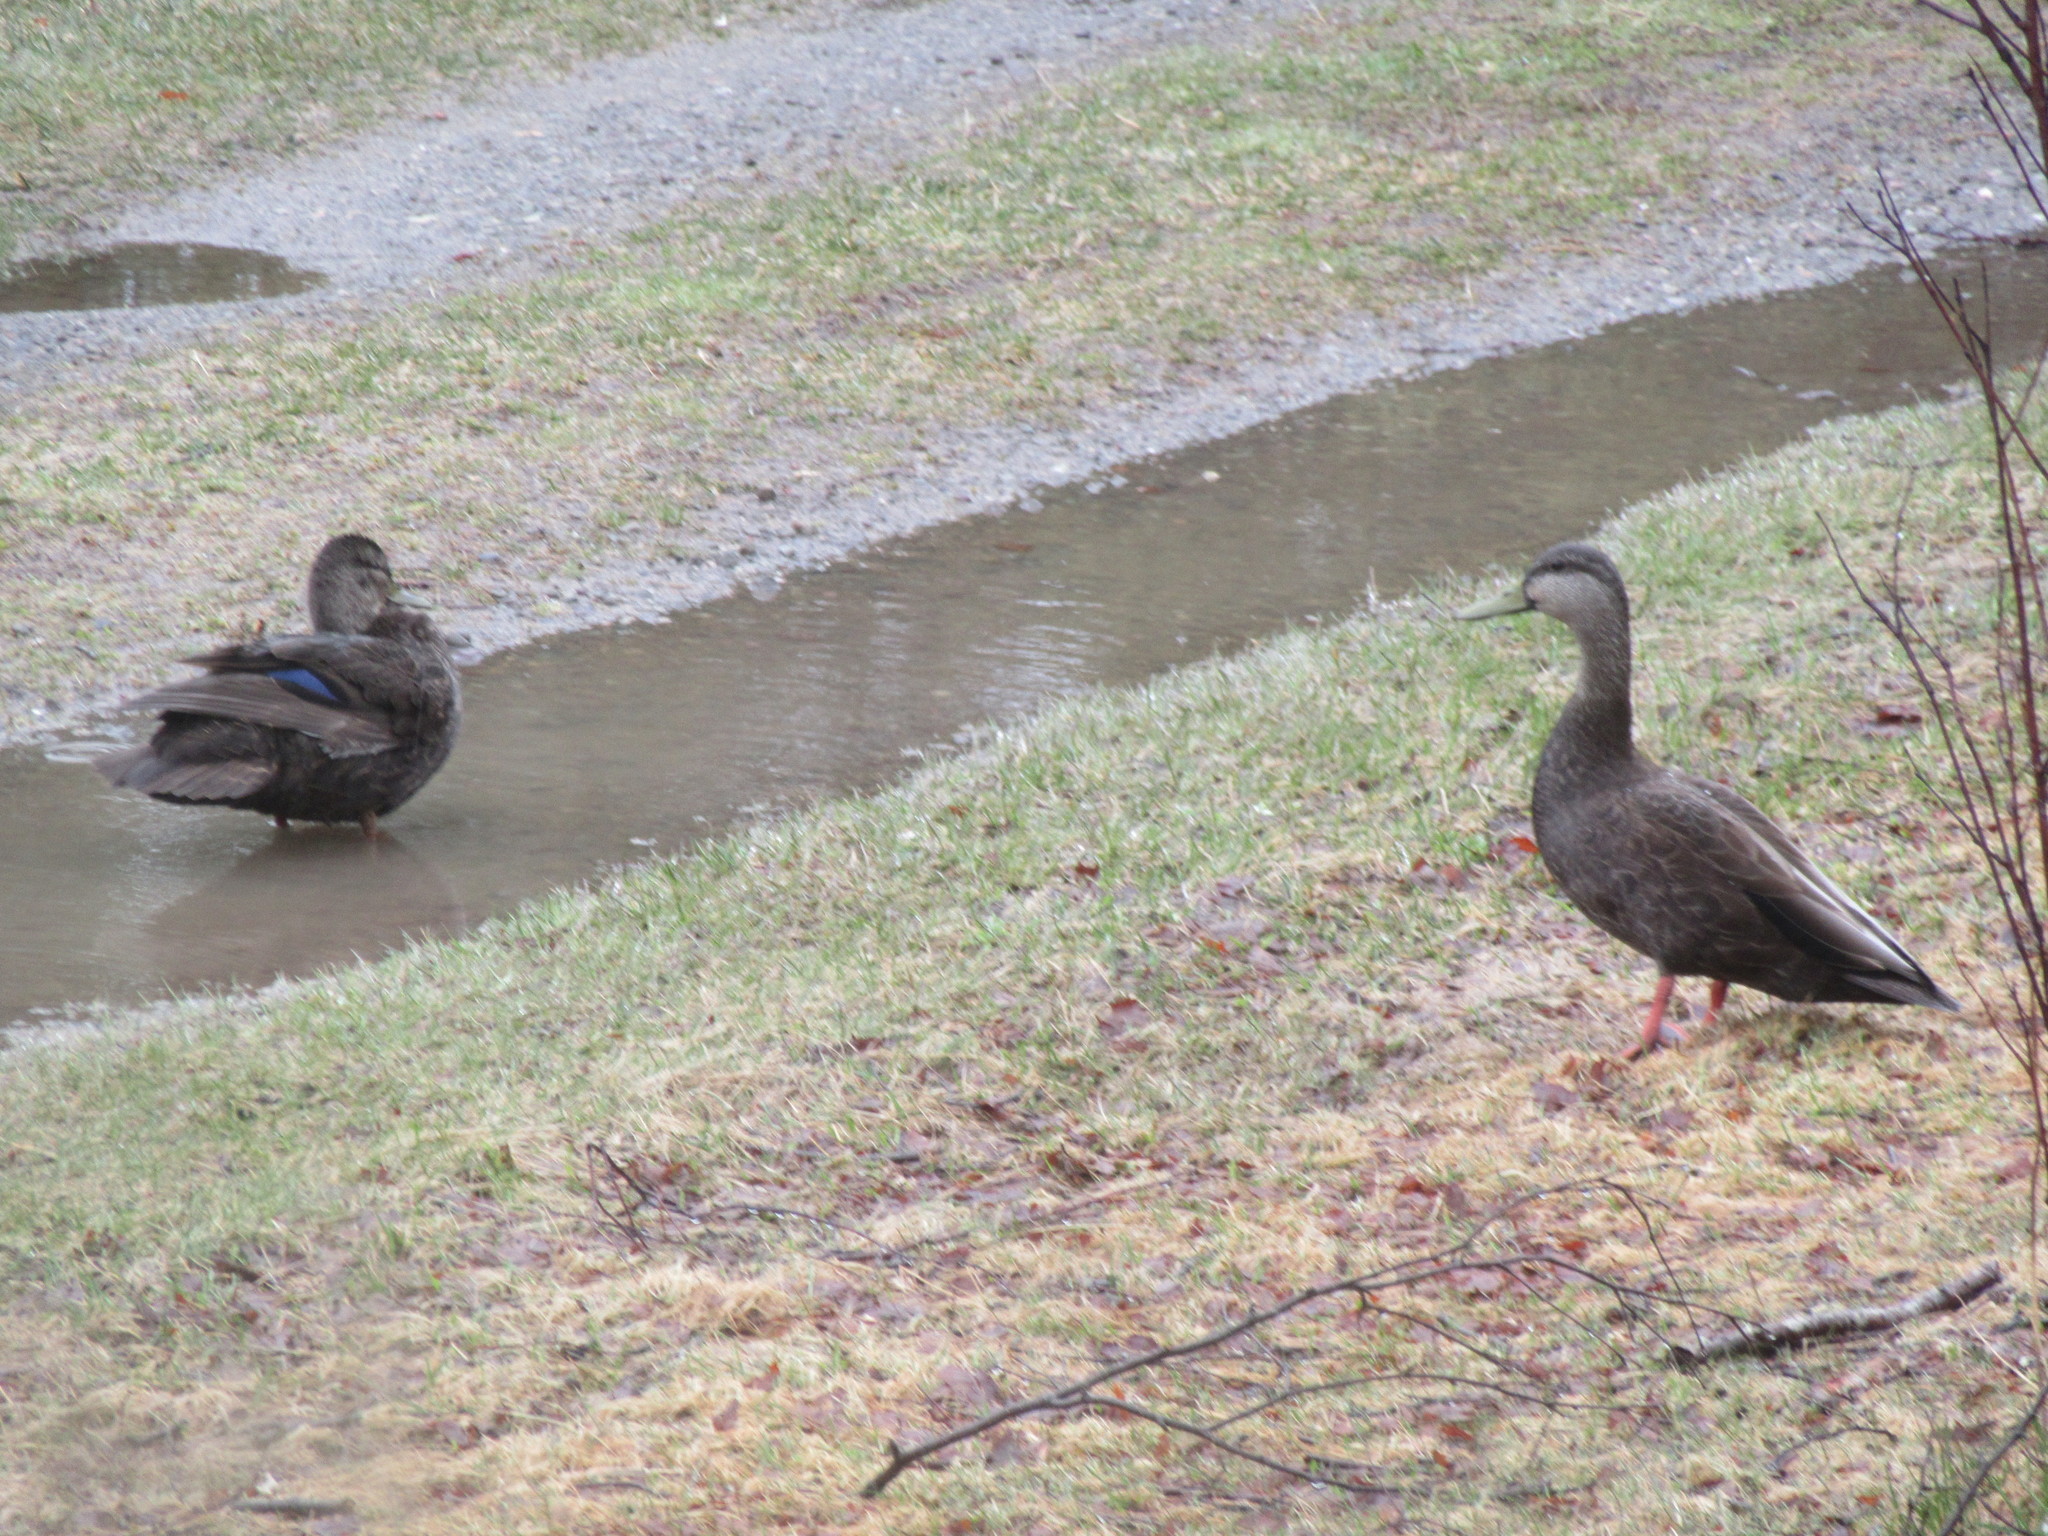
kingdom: Animalia
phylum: Chordata
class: Aves
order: Anseriformes
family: Anatidae
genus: Anas
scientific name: Anas rubripes
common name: American black duck
